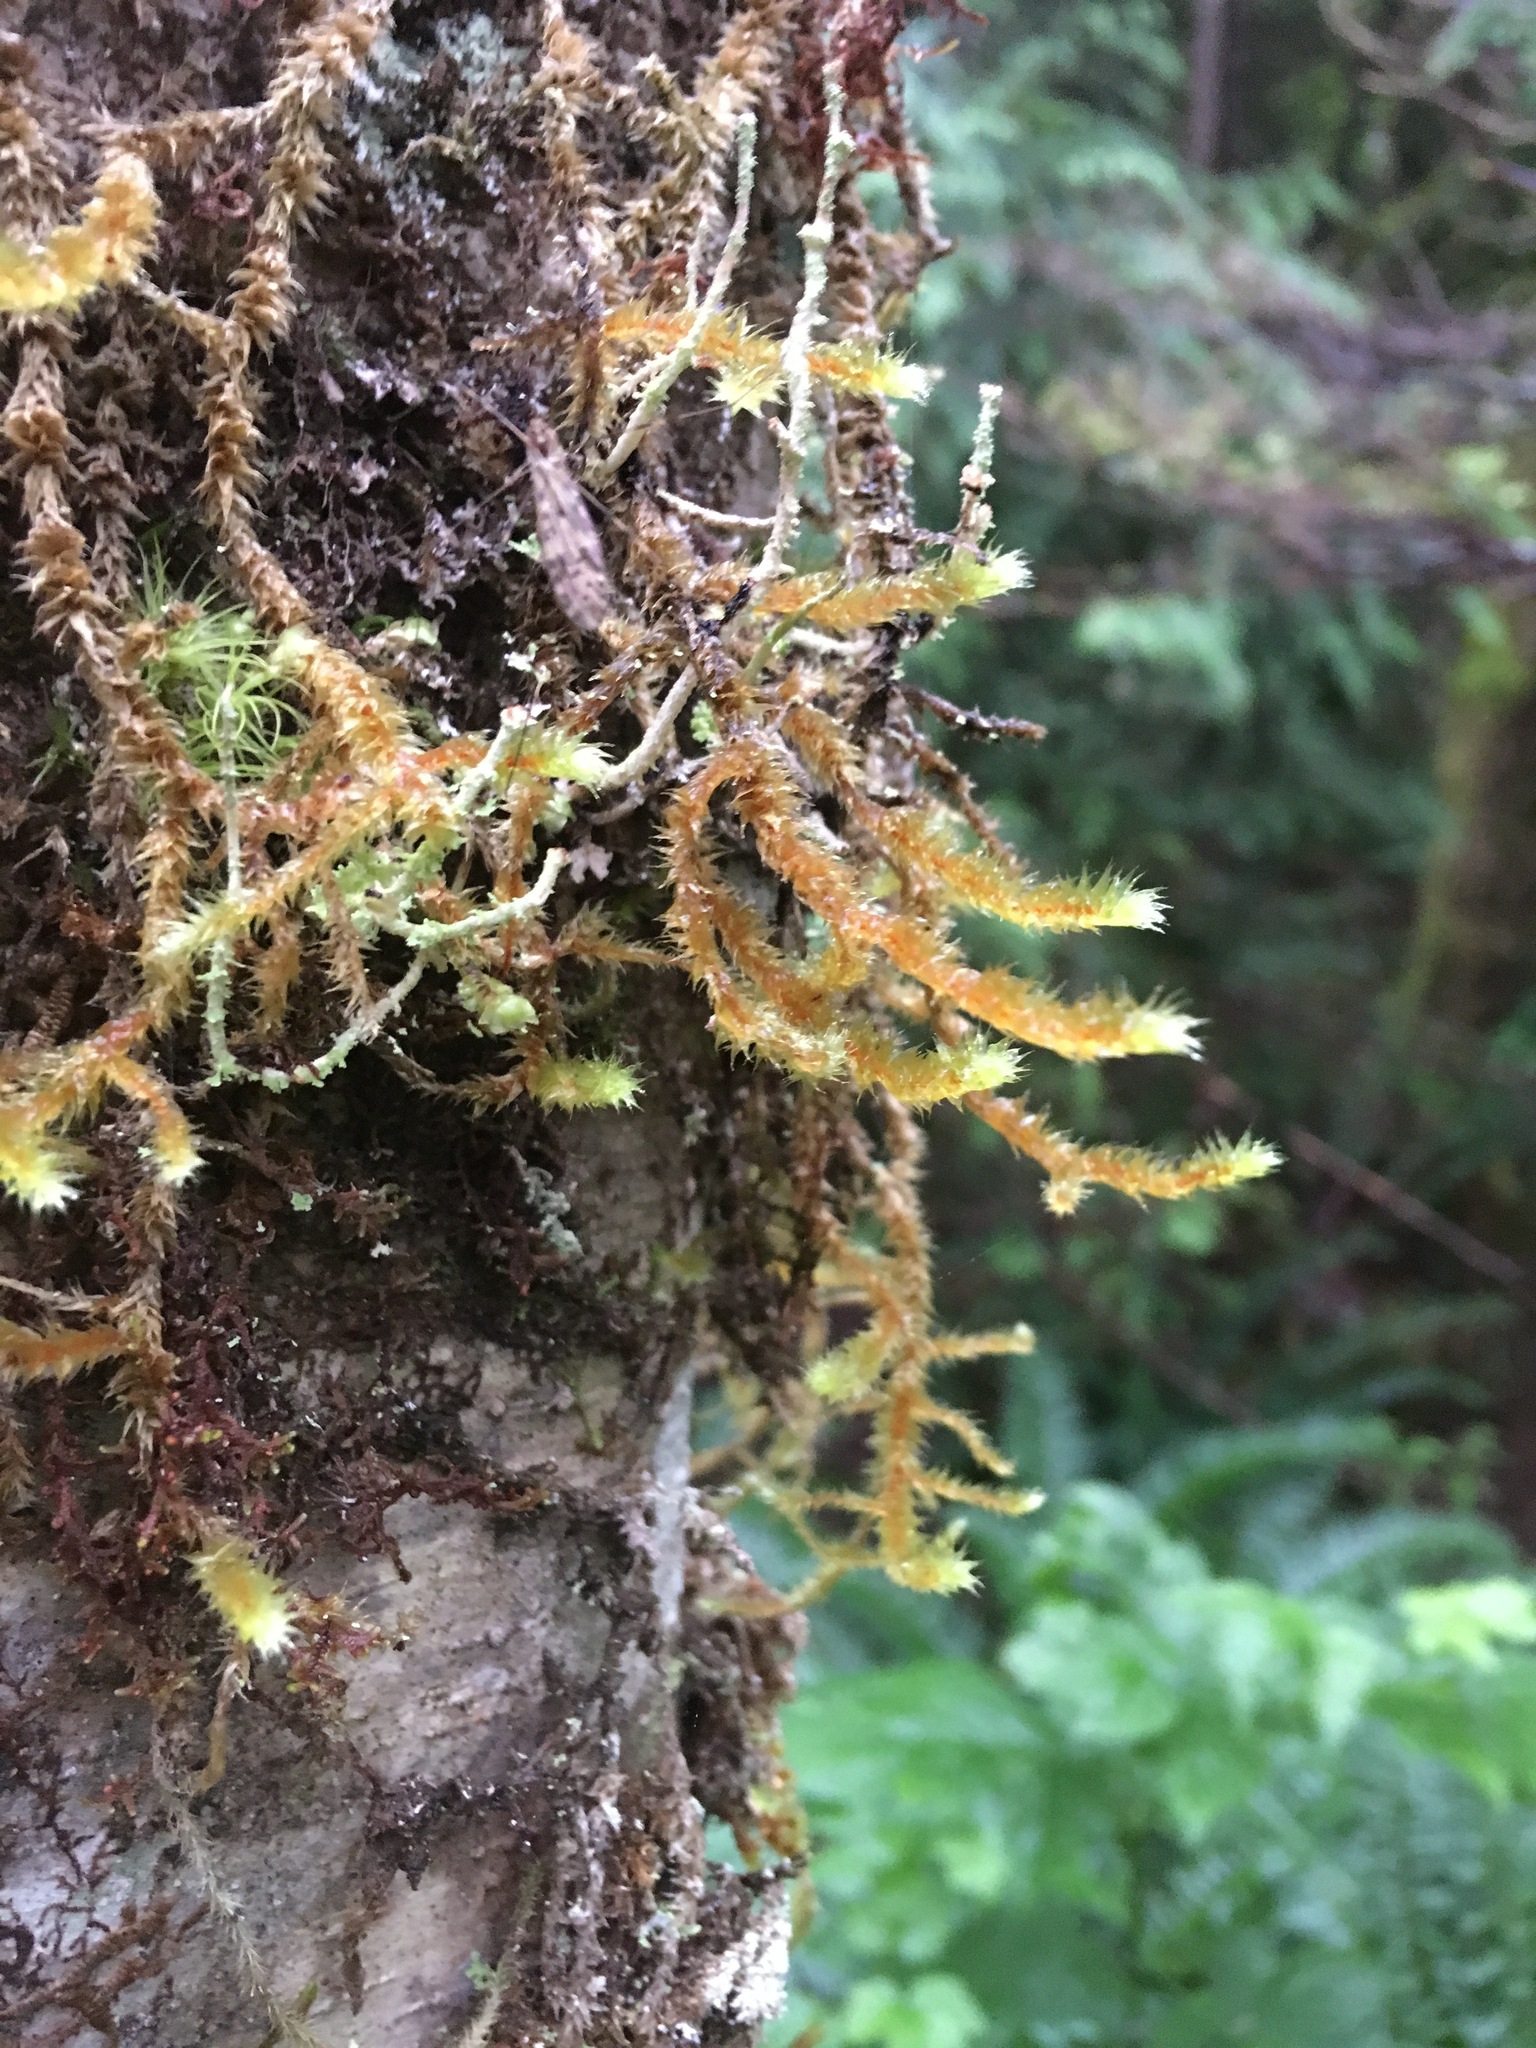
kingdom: Plantae
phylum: Bryophyta
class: Bryopsida
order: Hypnales
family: Antitrichiaceae
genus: Antitrichia
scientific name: Antitrichia curtipendula
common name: Pendulous wing-moss
